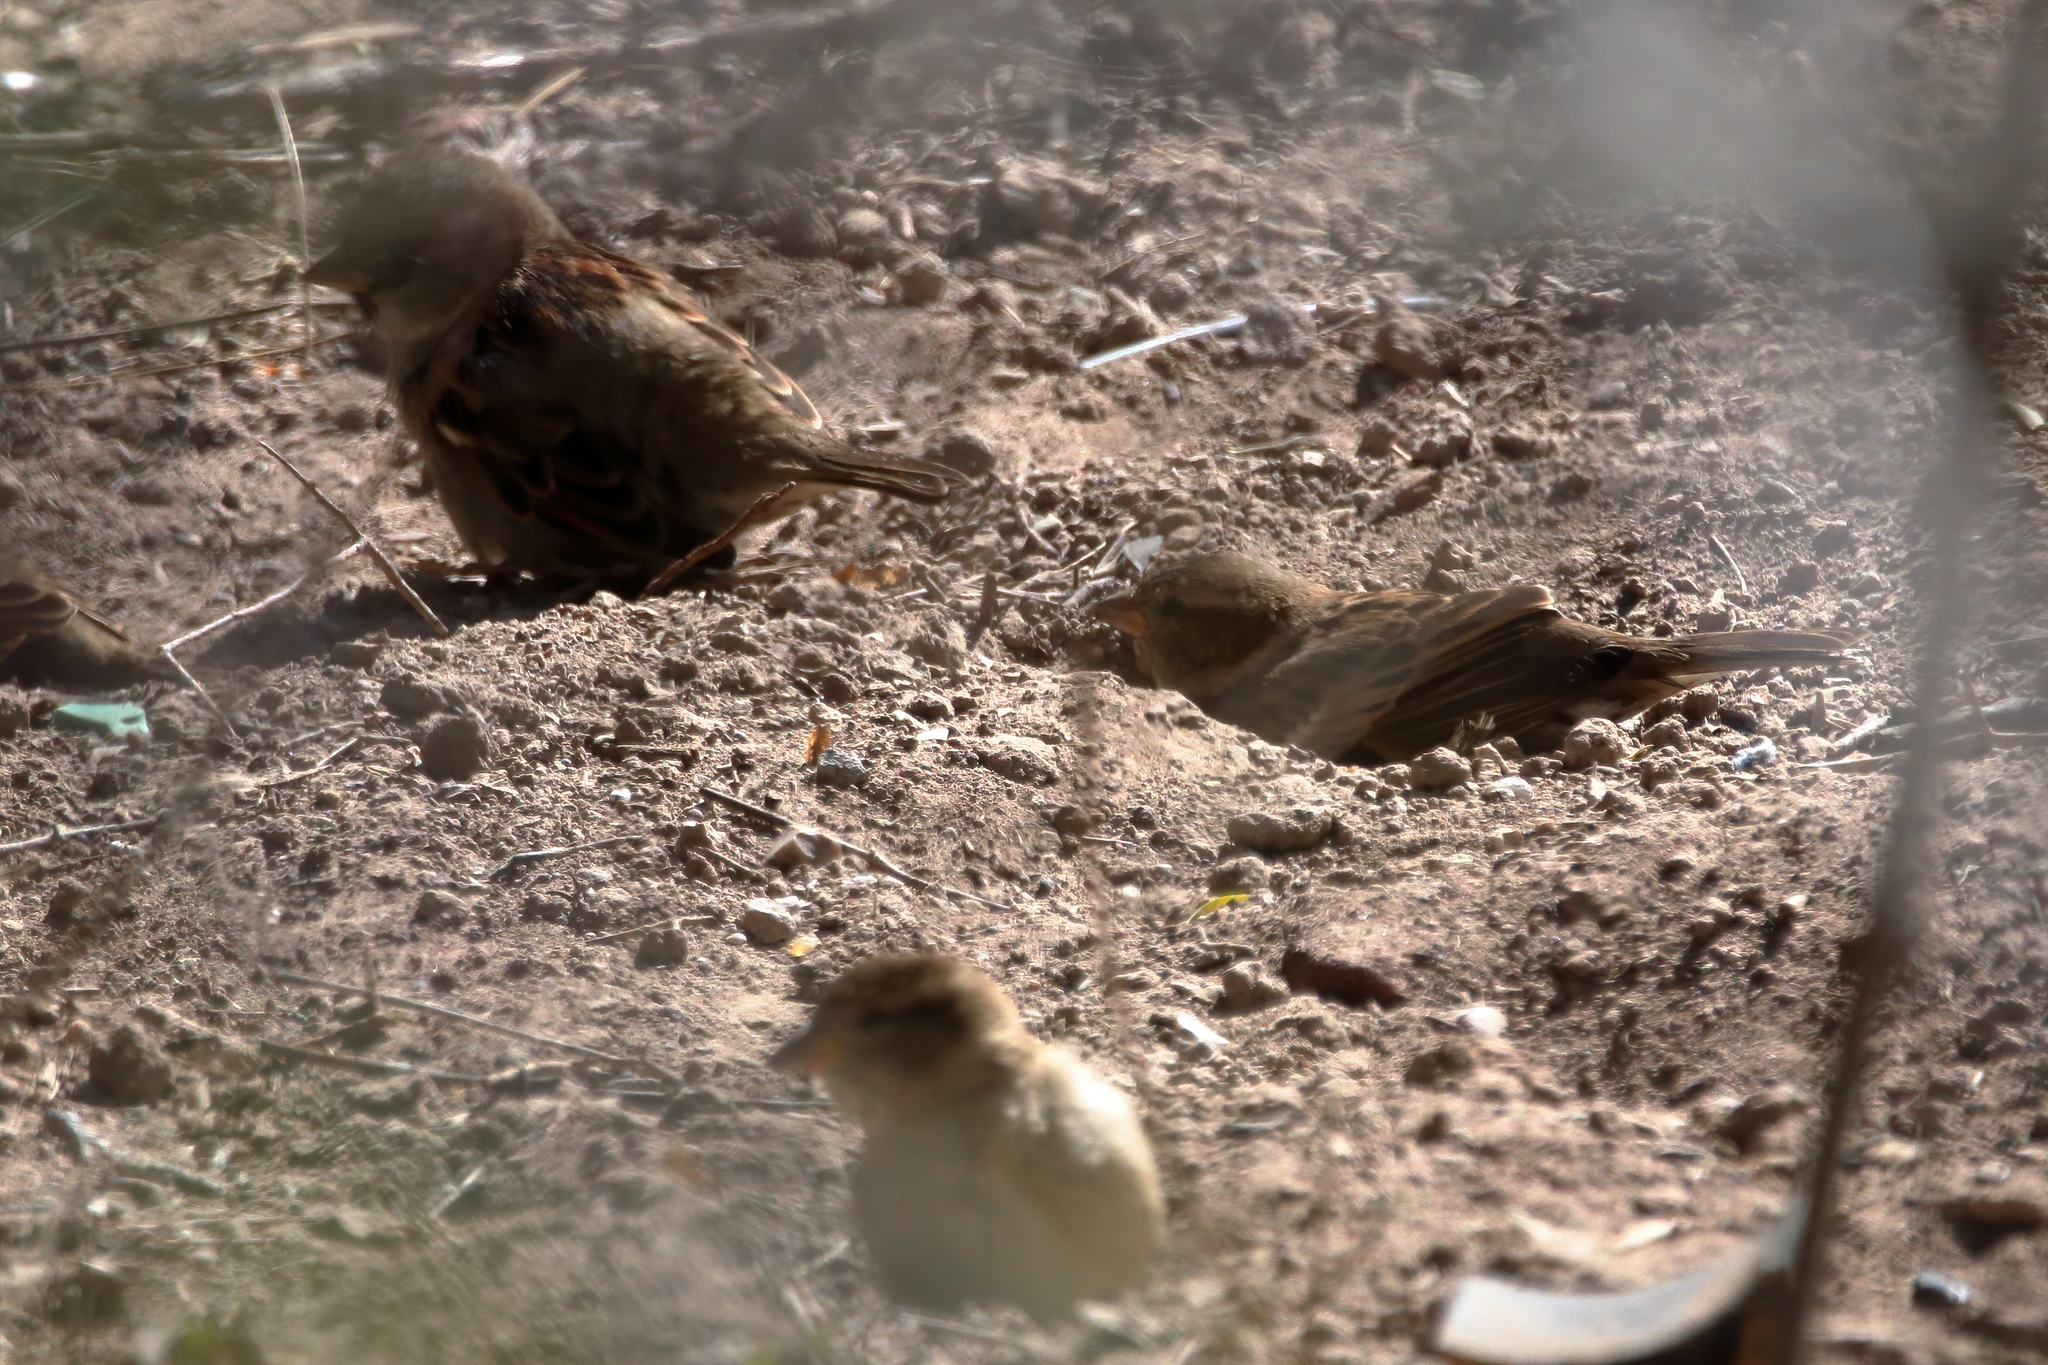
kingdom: Animalia
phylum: Chordata
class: Aves
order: Passeriformes
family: Passeridae
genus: Passer
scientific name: Passer domesticus
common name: House sparrow
